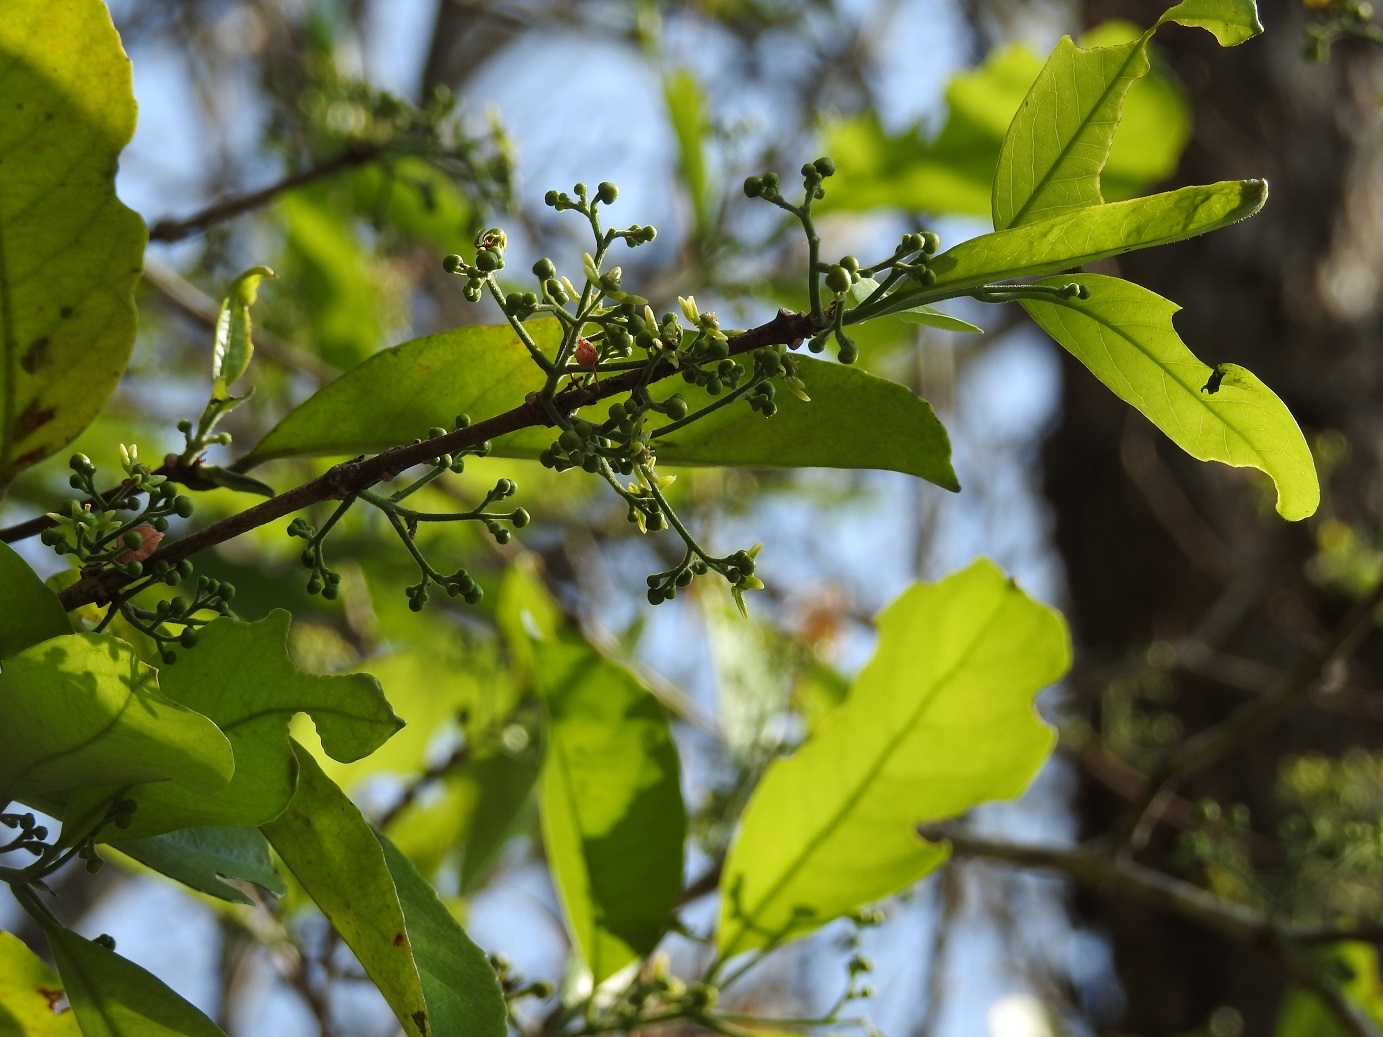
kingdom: Plantae
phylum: Tracheophyta
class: Magnoliopsida
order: Celastrales
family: Celastraceae
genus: Semialarium
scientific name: Semialarium mexicanum
